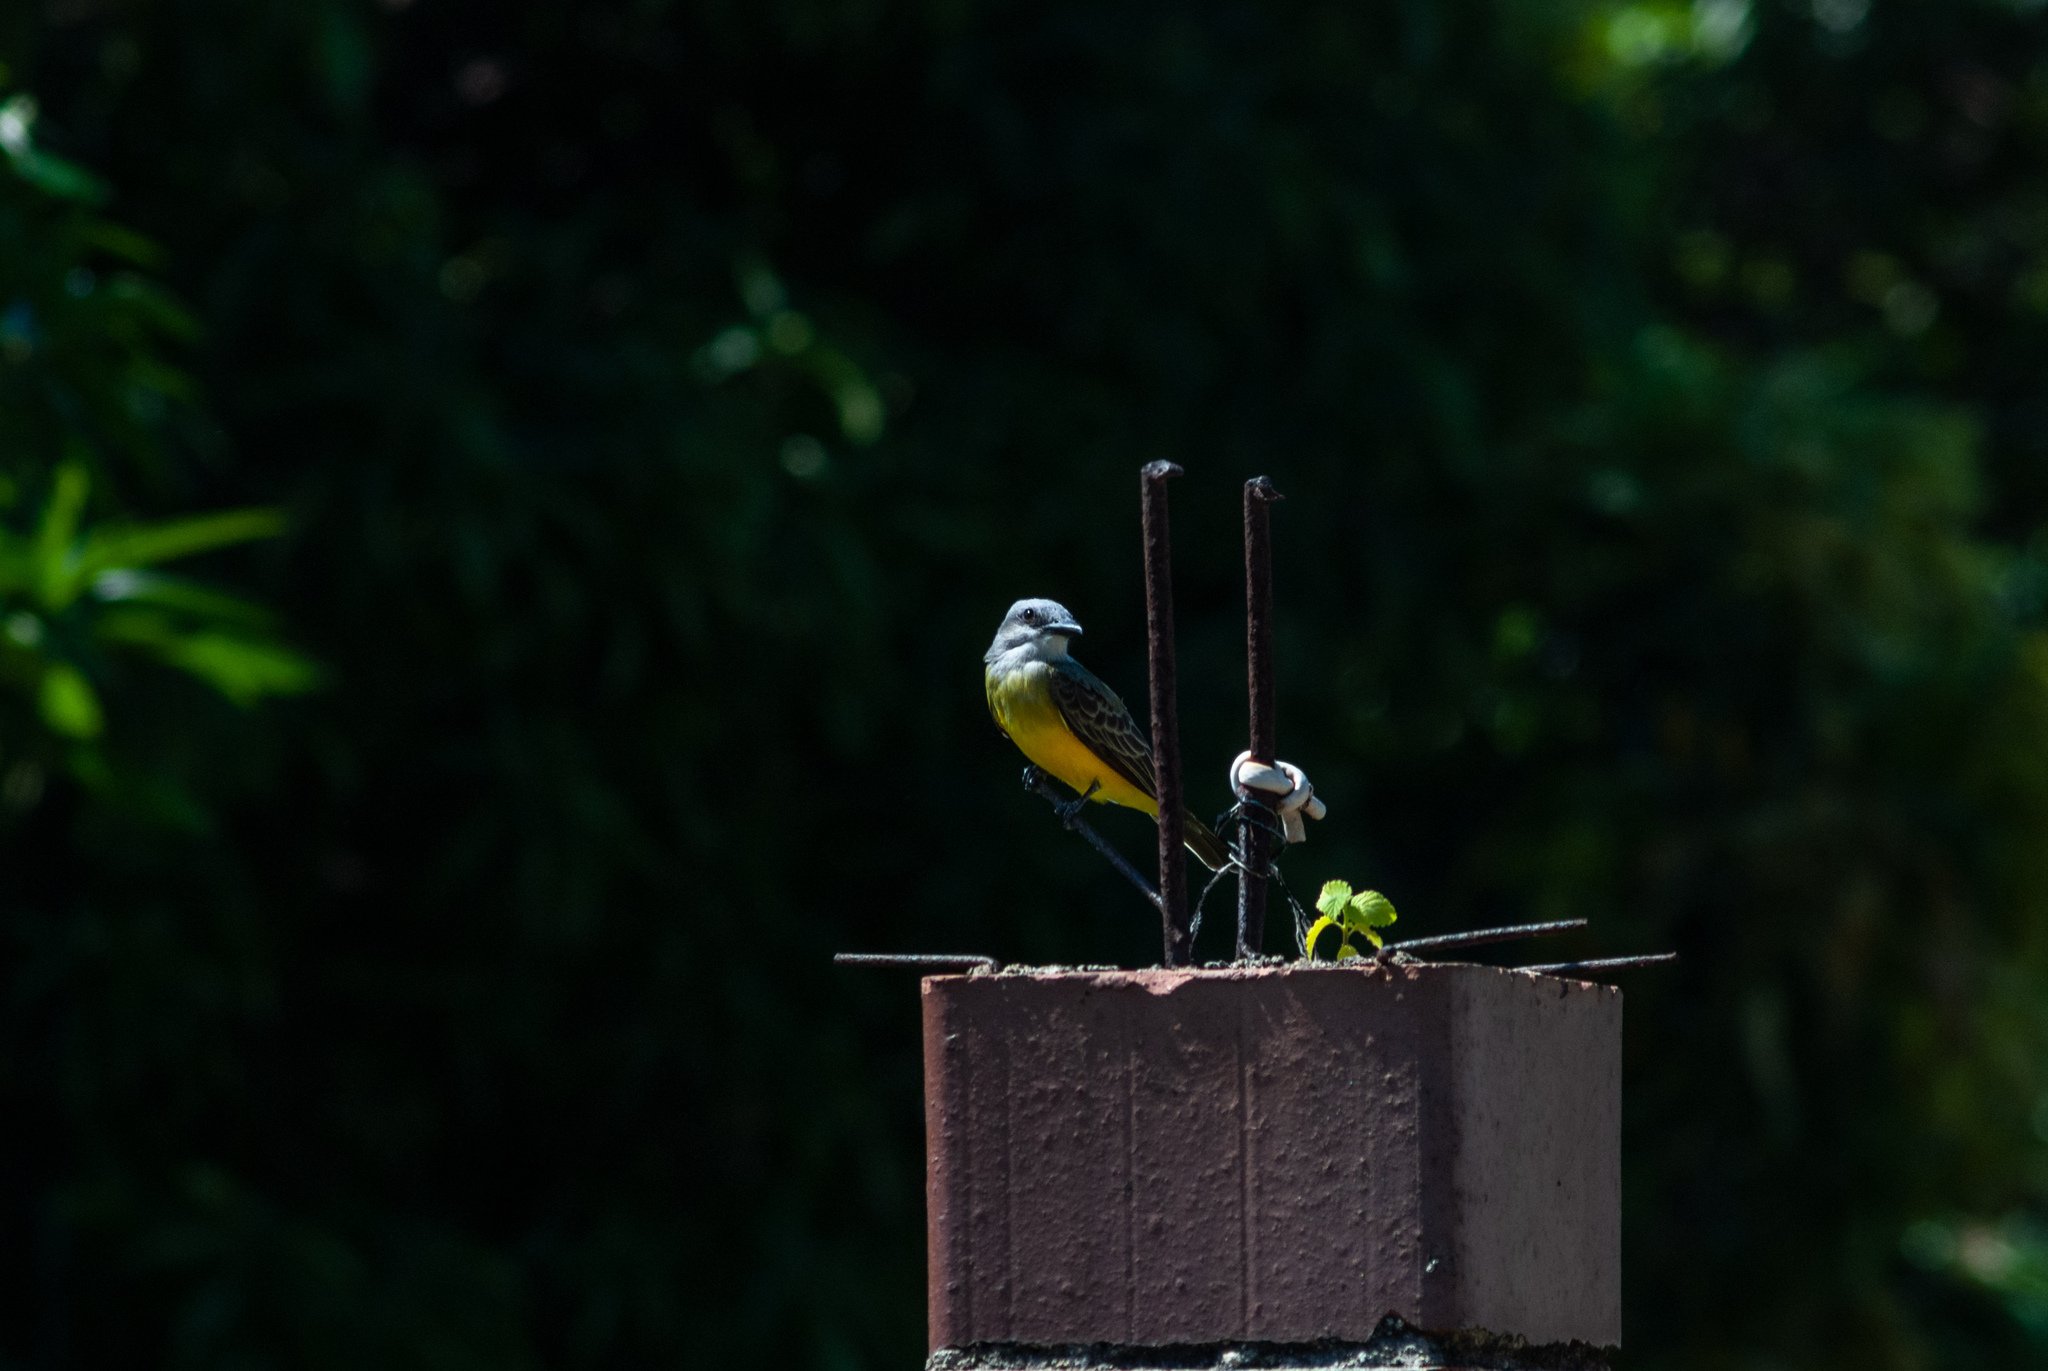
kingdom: Animalia
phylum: Chordata
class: Aves
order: Passeriformes
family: Tyrannidae
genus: Tyrannus
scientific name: Tyrannus melancholicus
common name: Tropical kingbird
